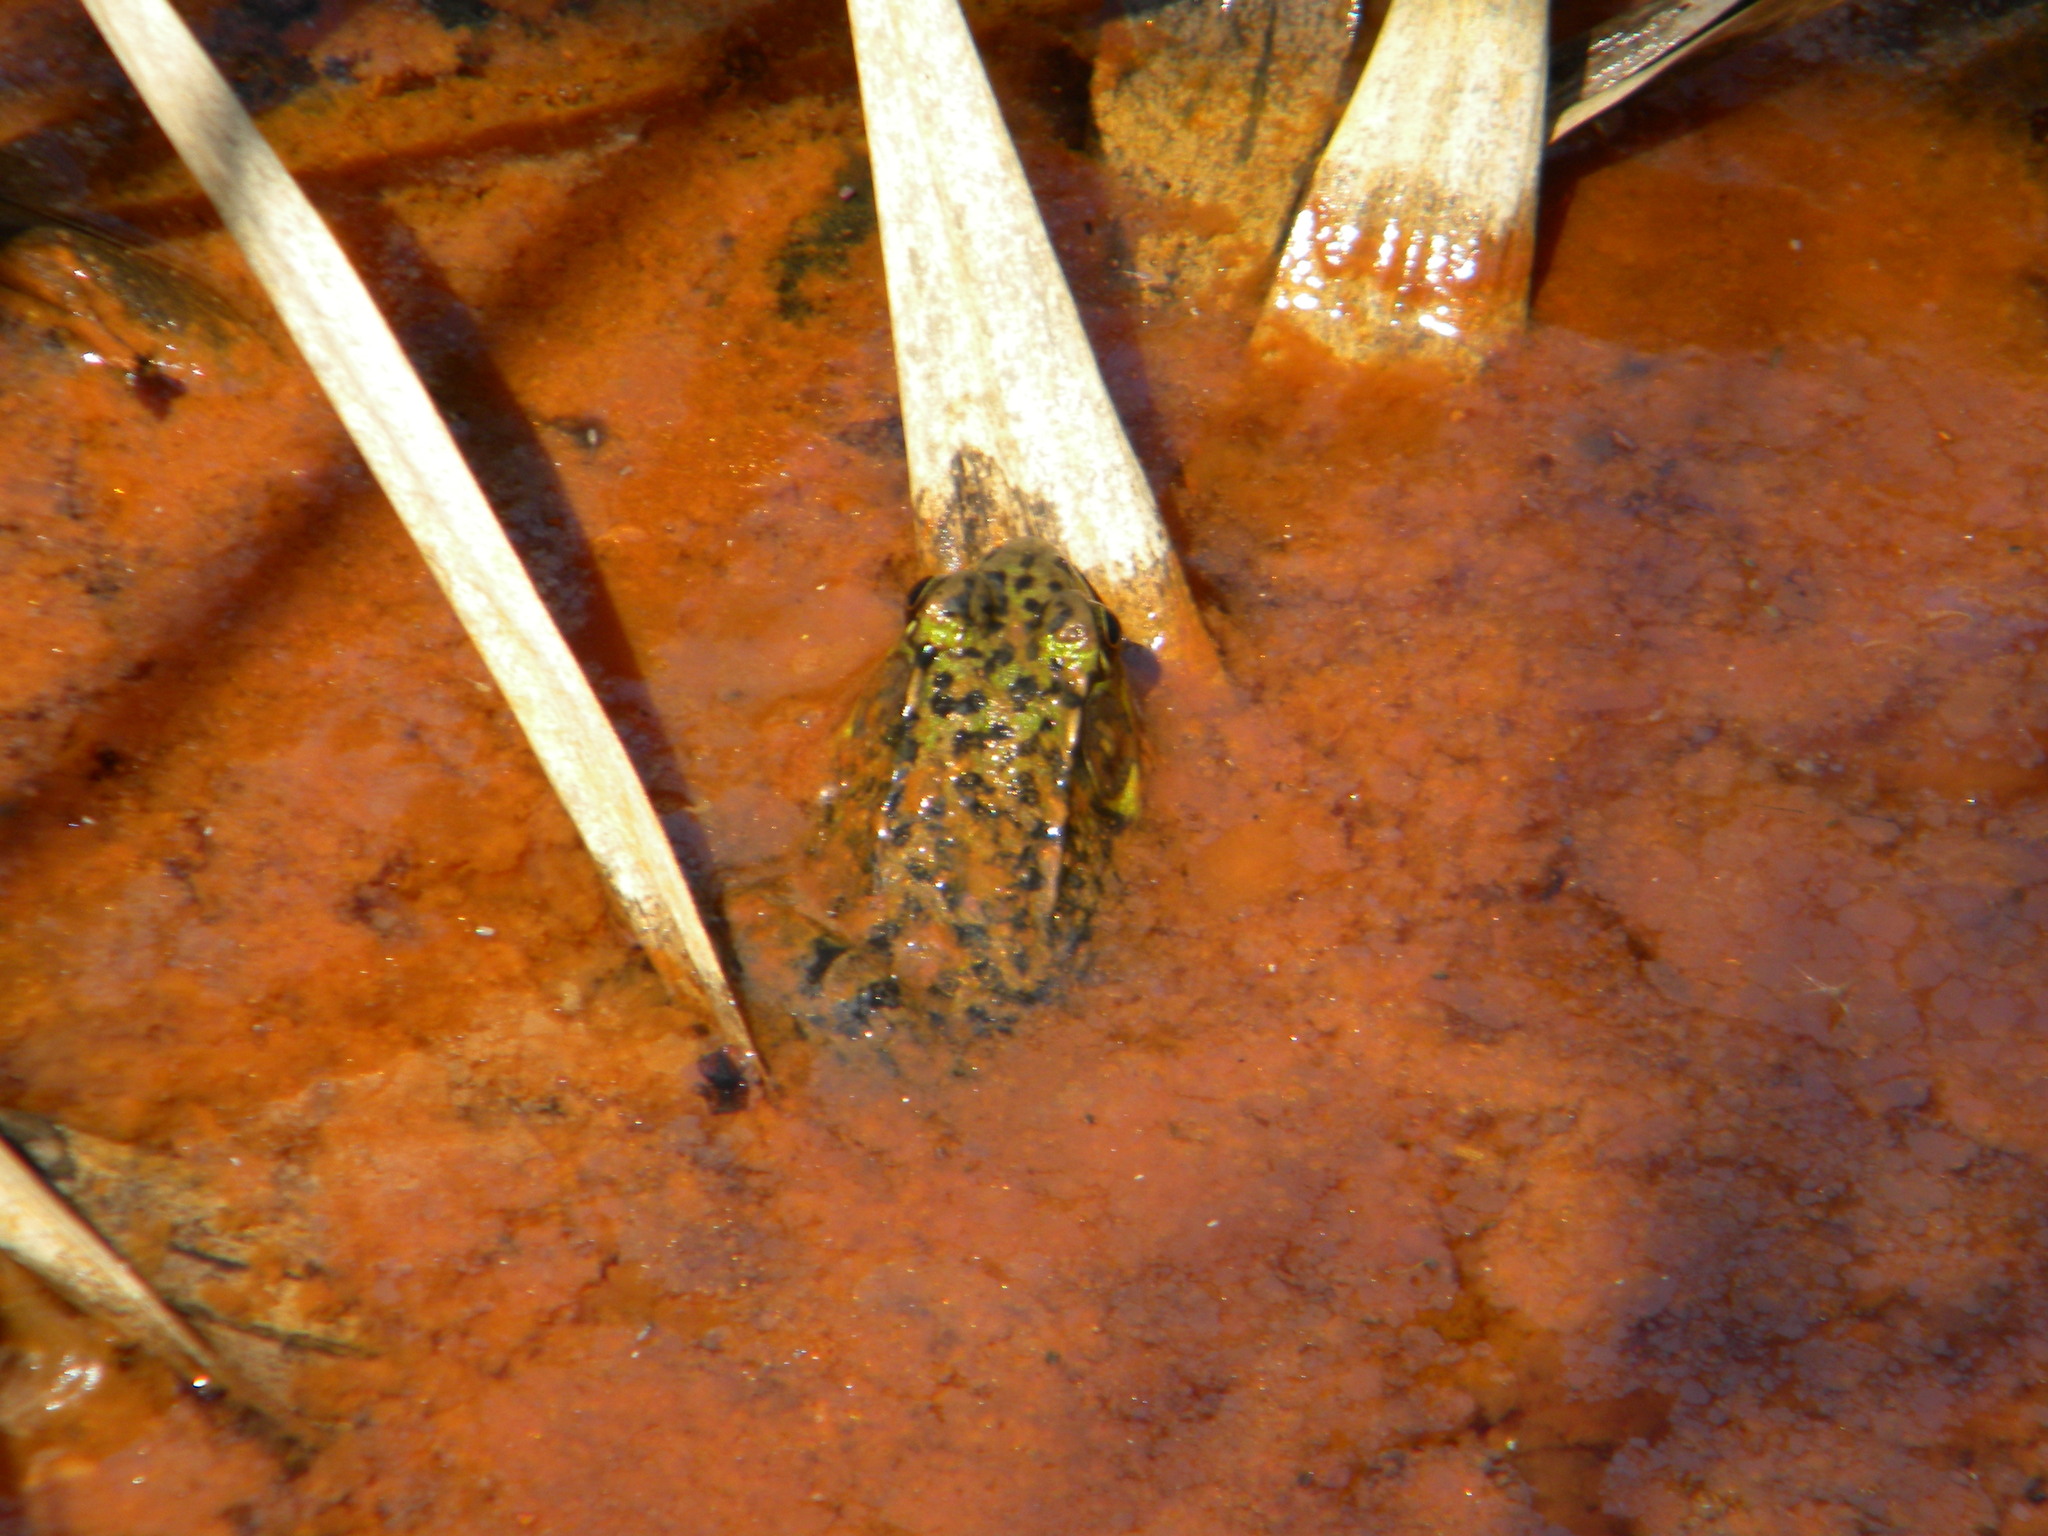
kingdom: Animalia
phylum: Chordata
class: Amphibia
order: Anura
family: Ranidae
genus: Lithobates
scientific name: Lithobates clamitans
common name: Green frog
